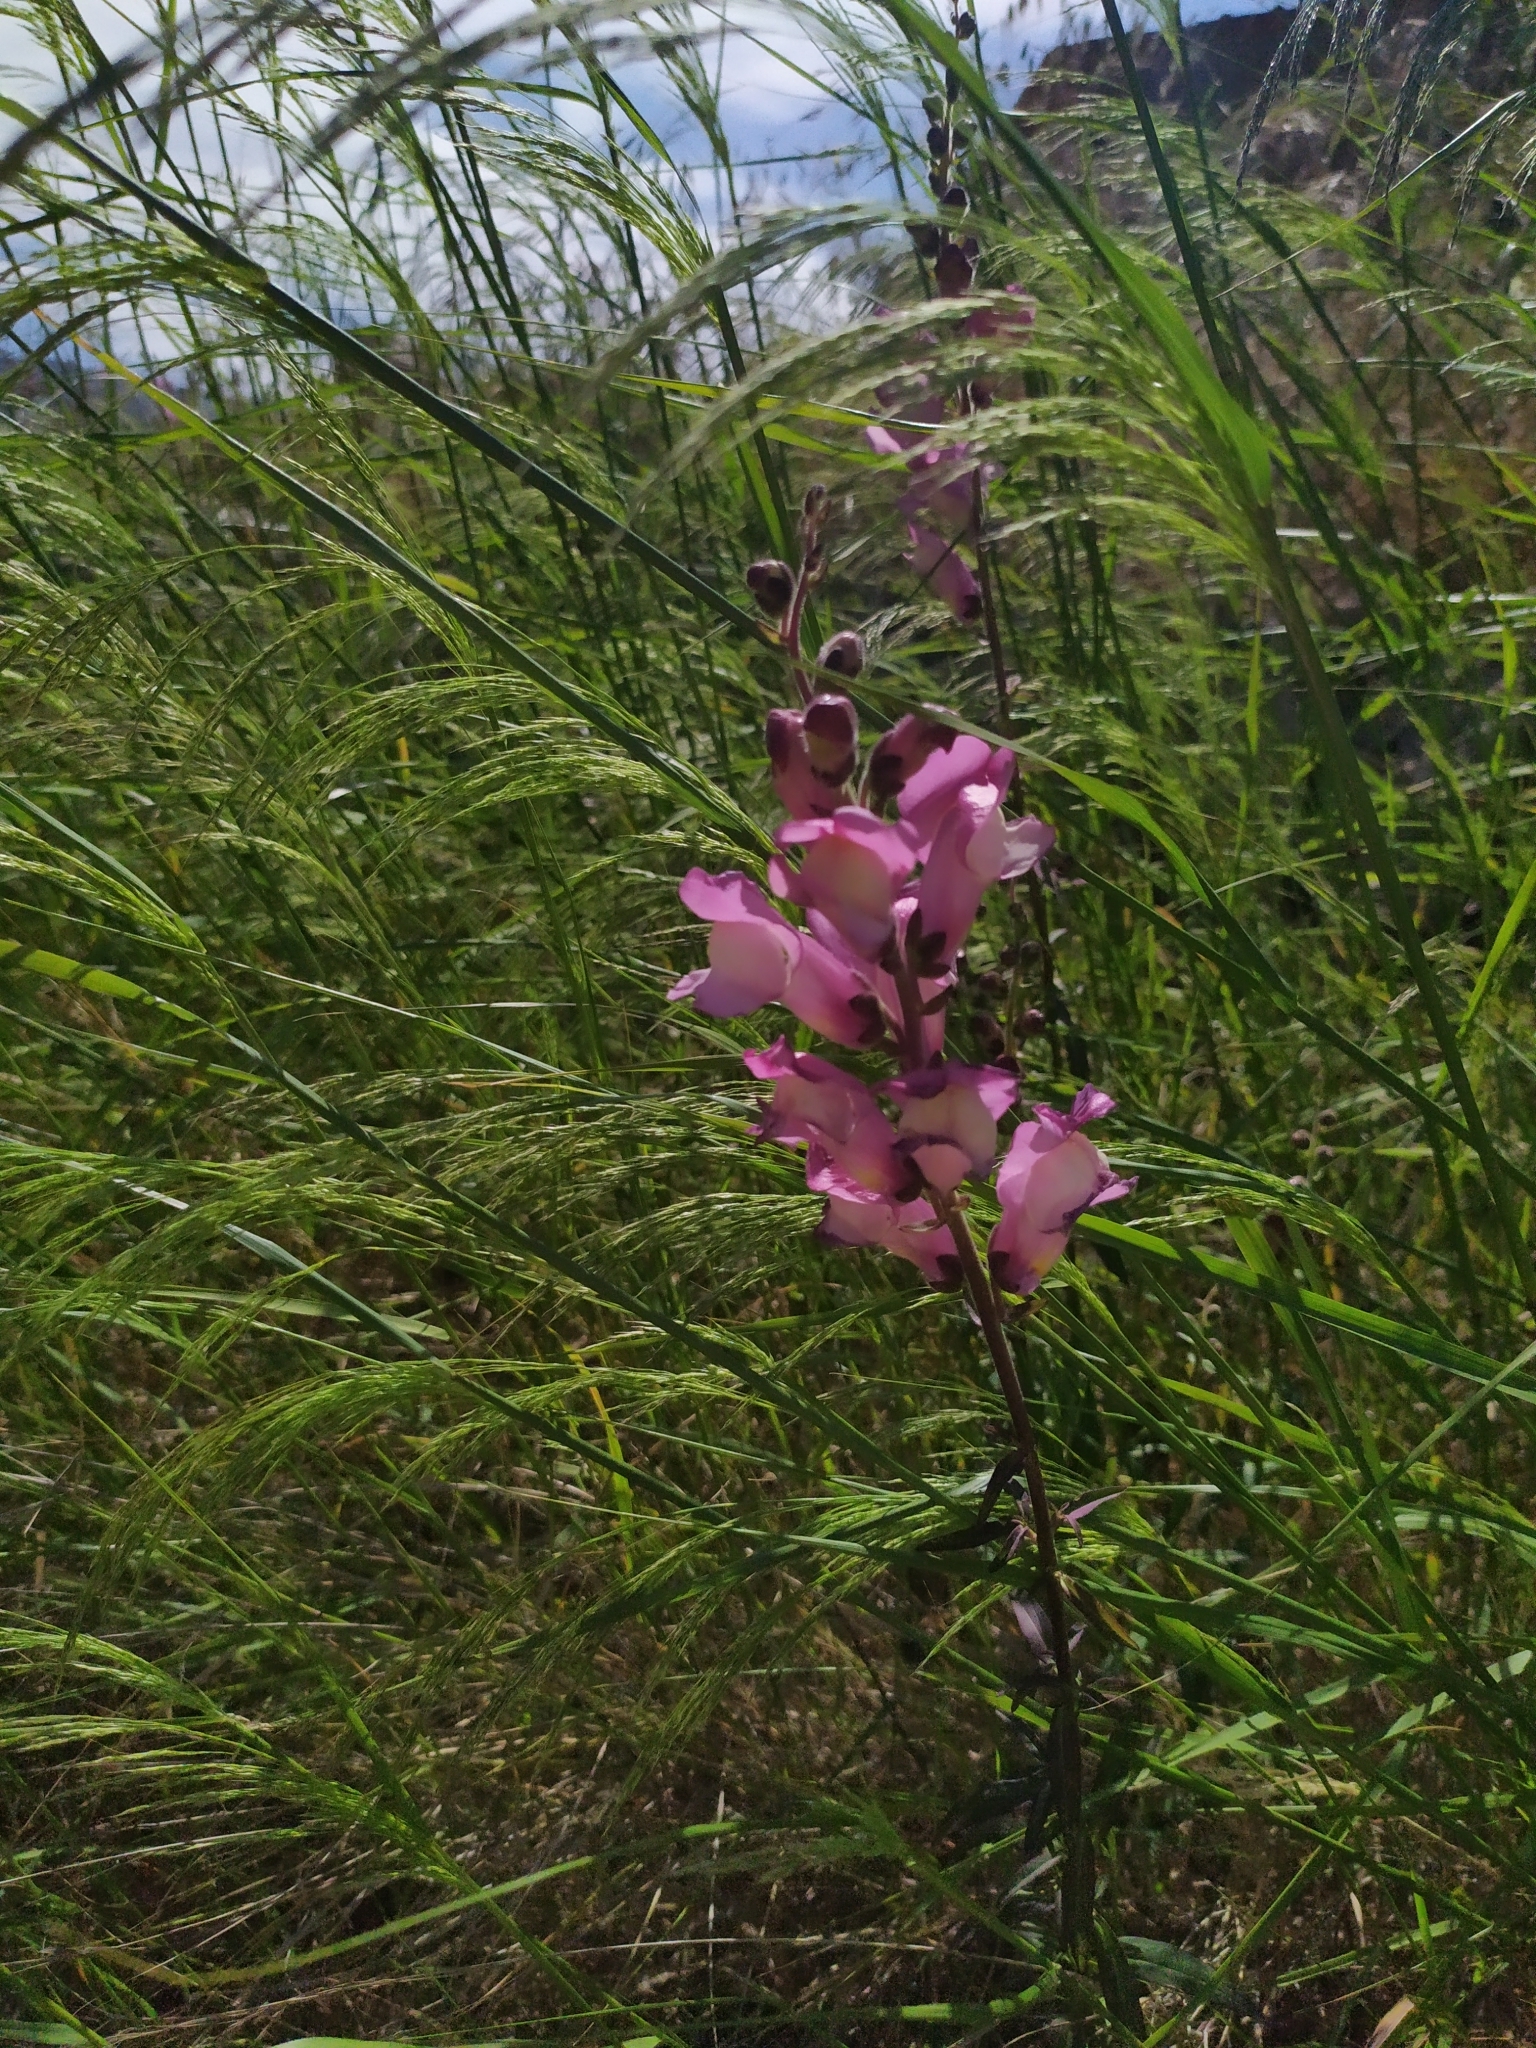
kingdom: Plantae
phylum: Tracheophyta
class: Magnoliopsida
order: Lamiales
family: Plantaginaceae
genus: Antirrhinum
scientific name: Antirrhinum majus
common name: Snapdragon
